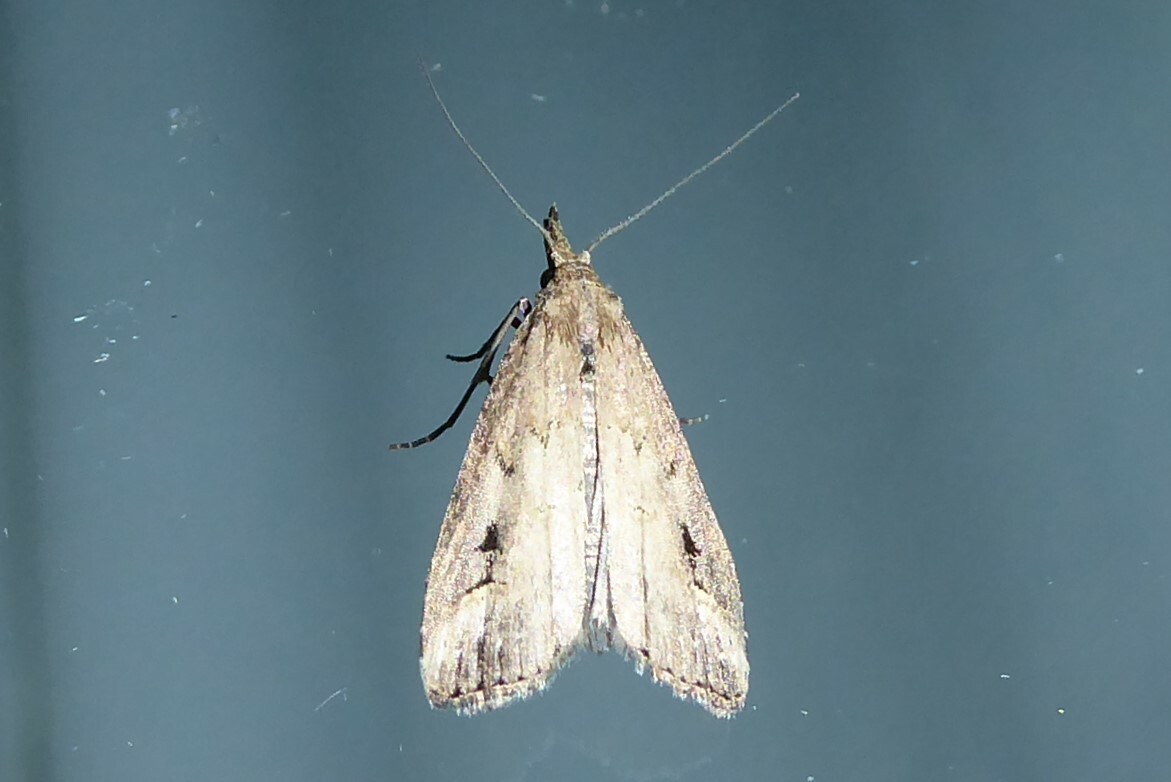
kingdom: Animalia
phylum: Arthropoda
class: Insecta
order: Lepidoptera
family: Erebidae
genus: Schrankia
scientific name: Schrankia costaestrigalis
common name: Pinion-streaked snout
